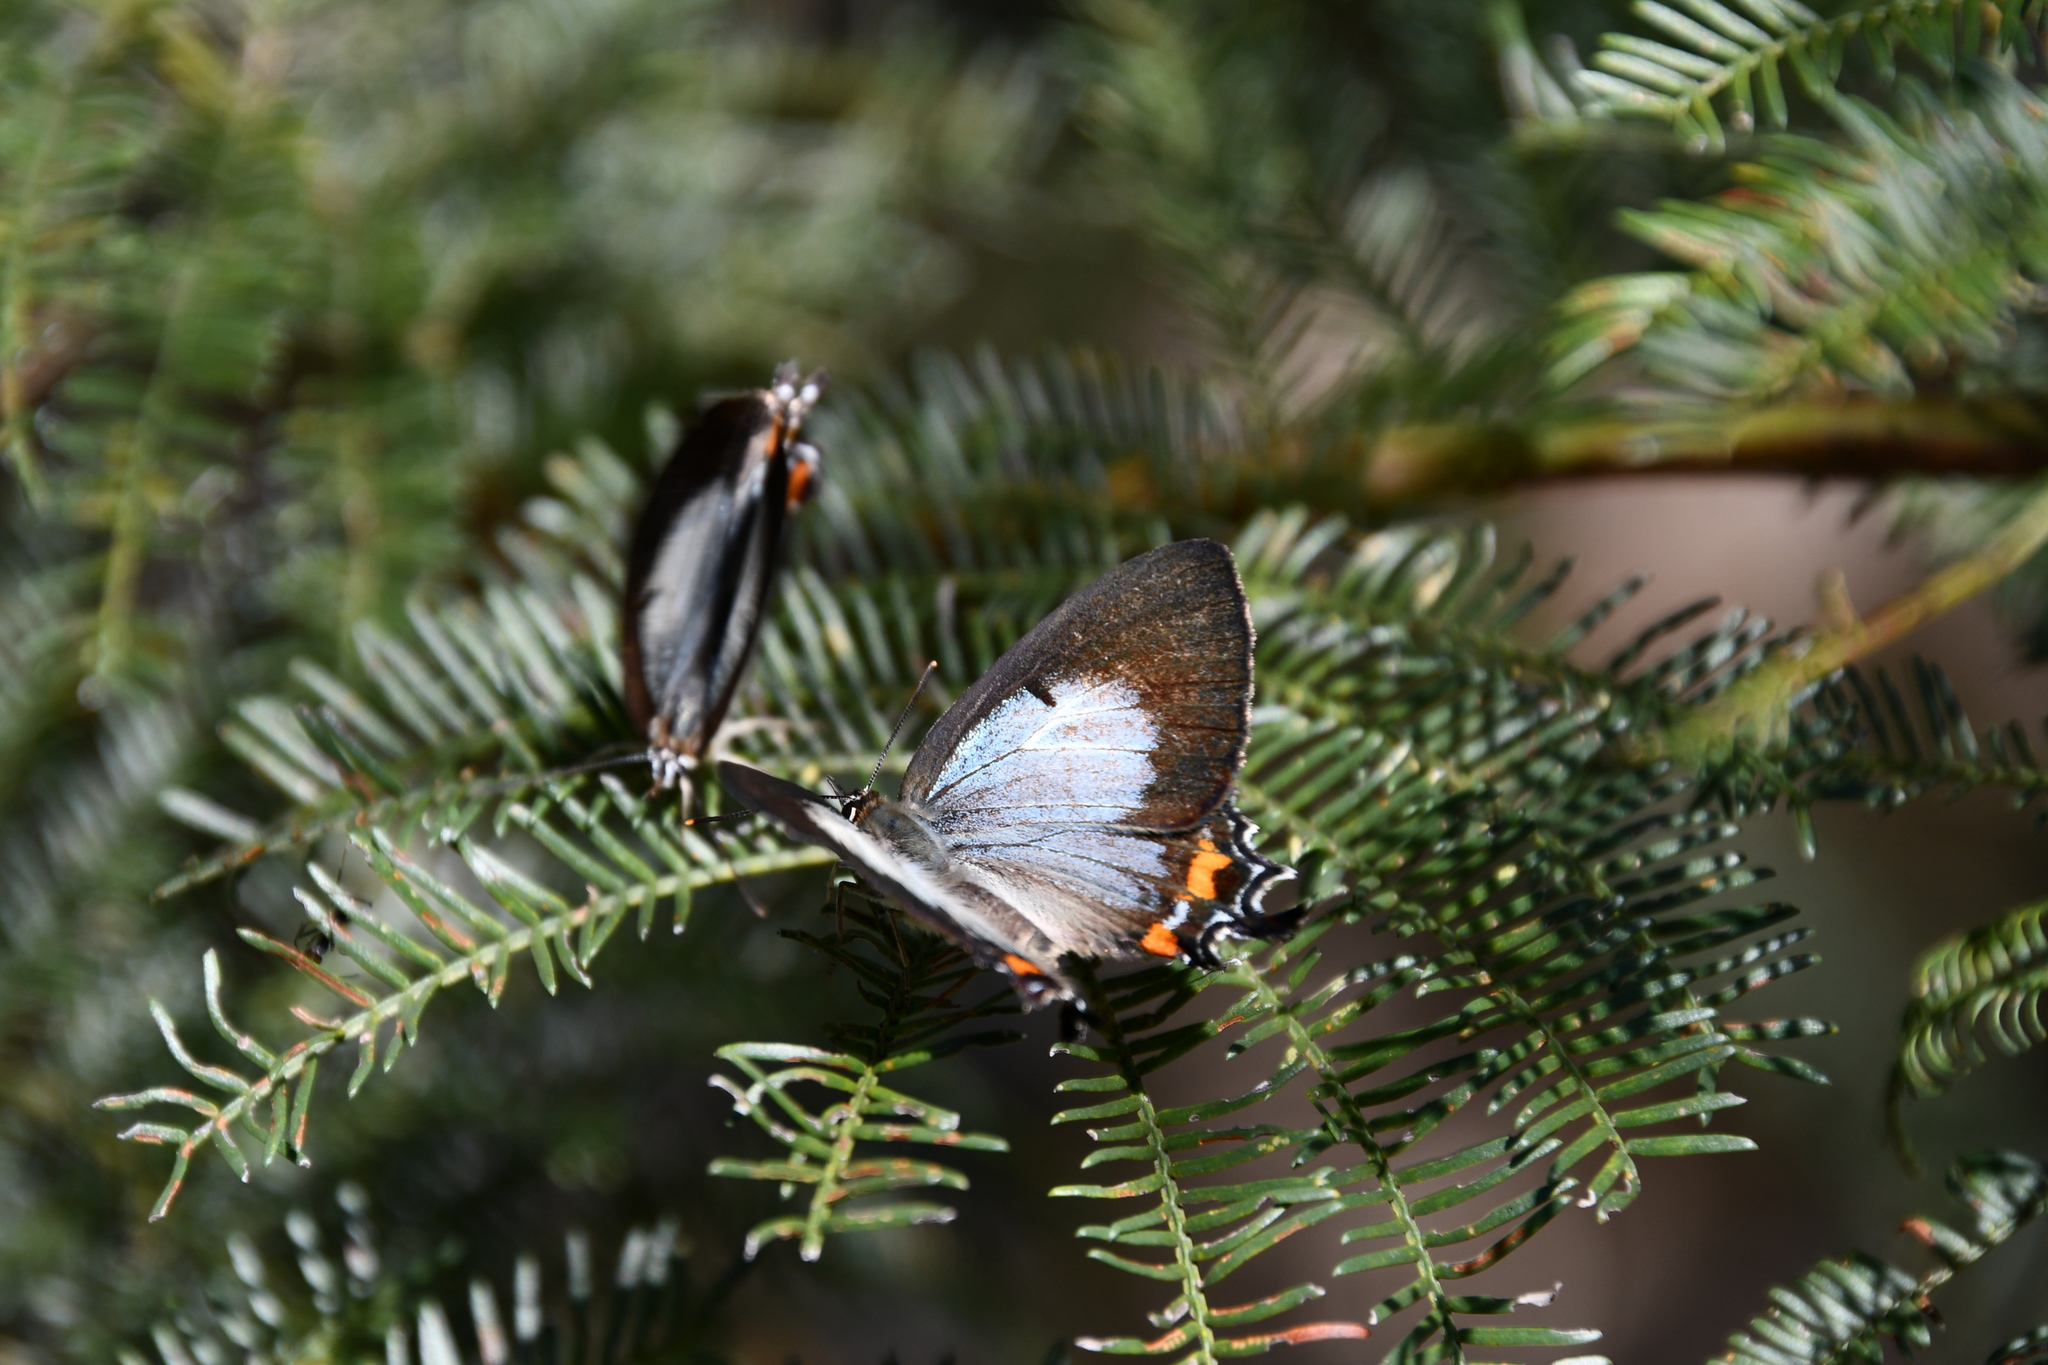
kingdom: Animalia
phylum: Arthropoda
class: Insecta
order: Lepidoptera
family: Lycaenidae
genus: Jalmenus
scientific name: Jalmenus evagoras
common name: Common imperial blue
